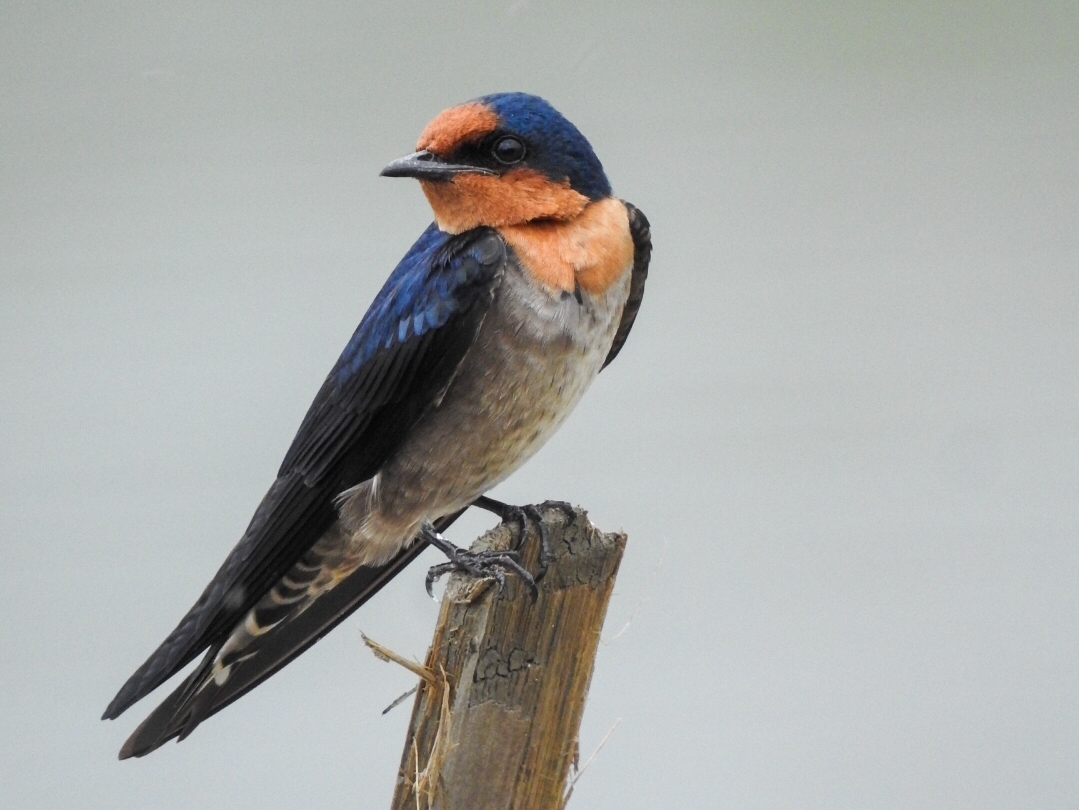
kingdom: Animalia
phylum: Chordata
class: Aves
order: Passeriformes
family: Hirundinidae
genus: Hirundo
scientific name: Hirundo tahitica
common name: Pacific swallow
